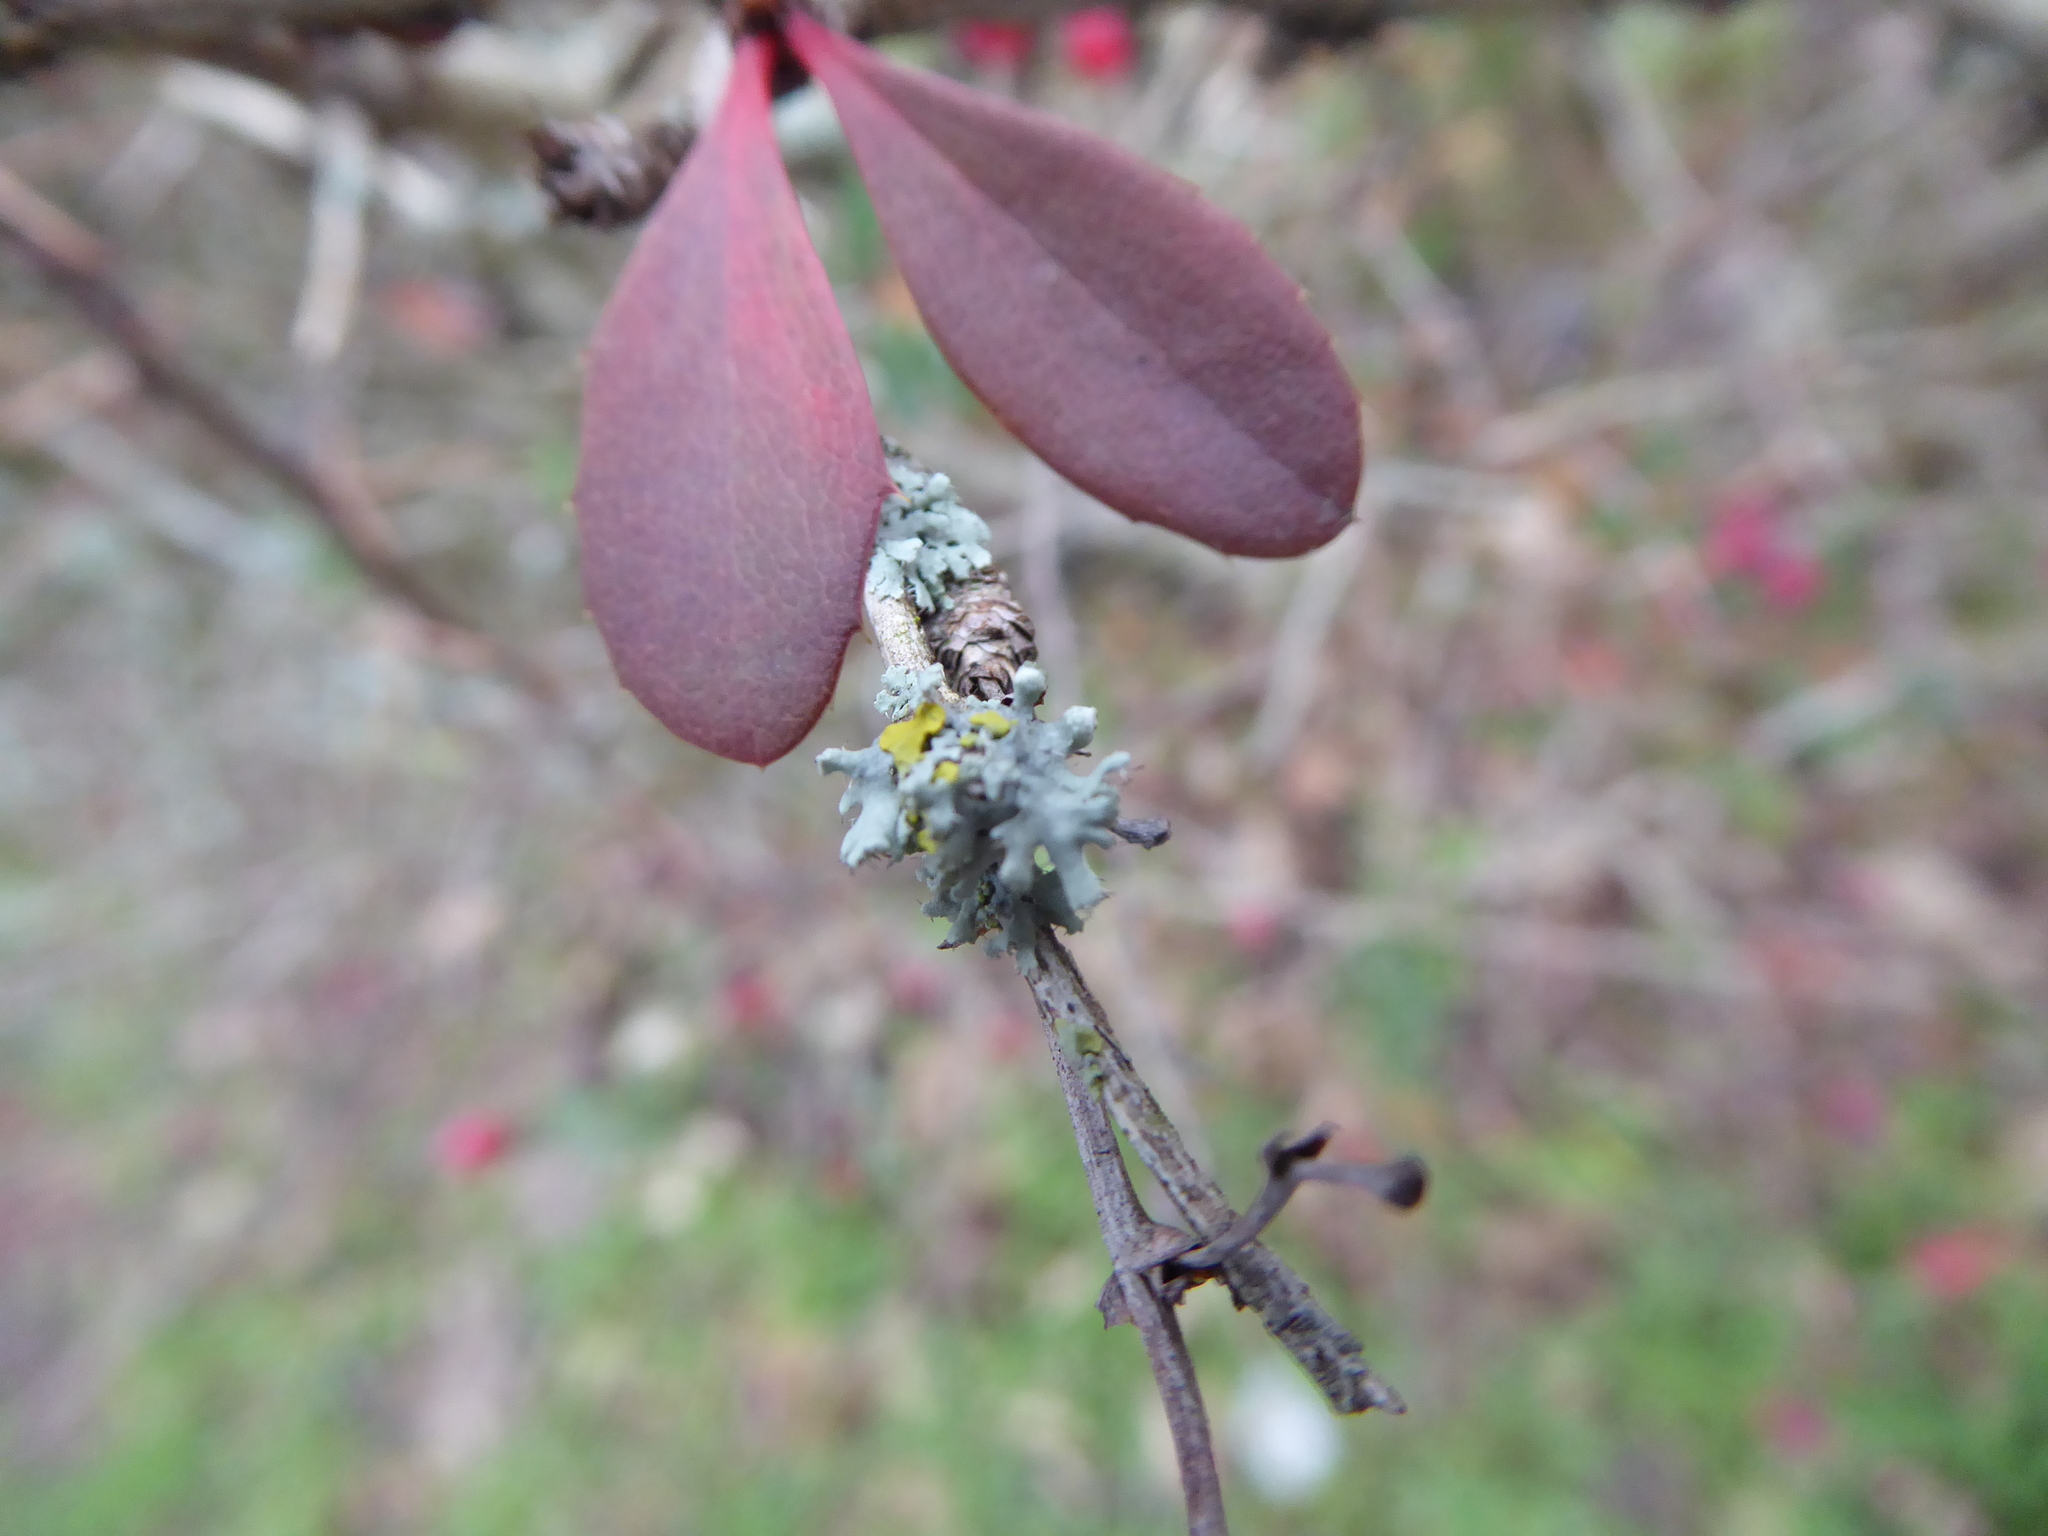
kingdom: Fungi
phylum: Ascomycota
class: Lecanoromycetes
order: Caliciales
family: Physciaceae
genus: Physcia
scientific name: Physcia adscendens
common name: Hooded rosette lichen
